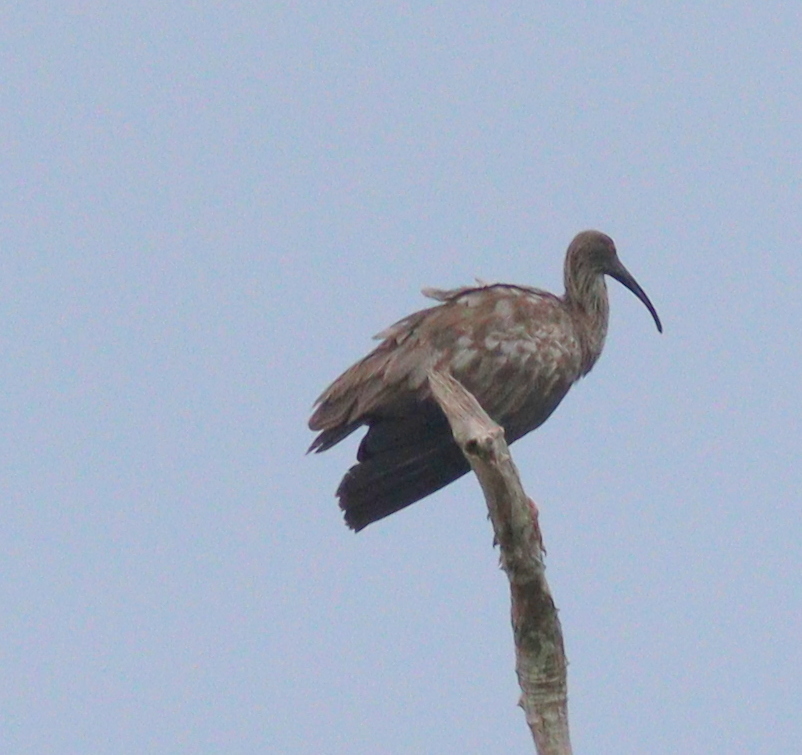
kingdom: Animalia
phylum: Chordata
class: Aves
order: Pelecaniformes
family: Threskiornithidae
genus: Theristicus
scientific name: Theristicus caerulescens
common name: Plumbeous ibis
